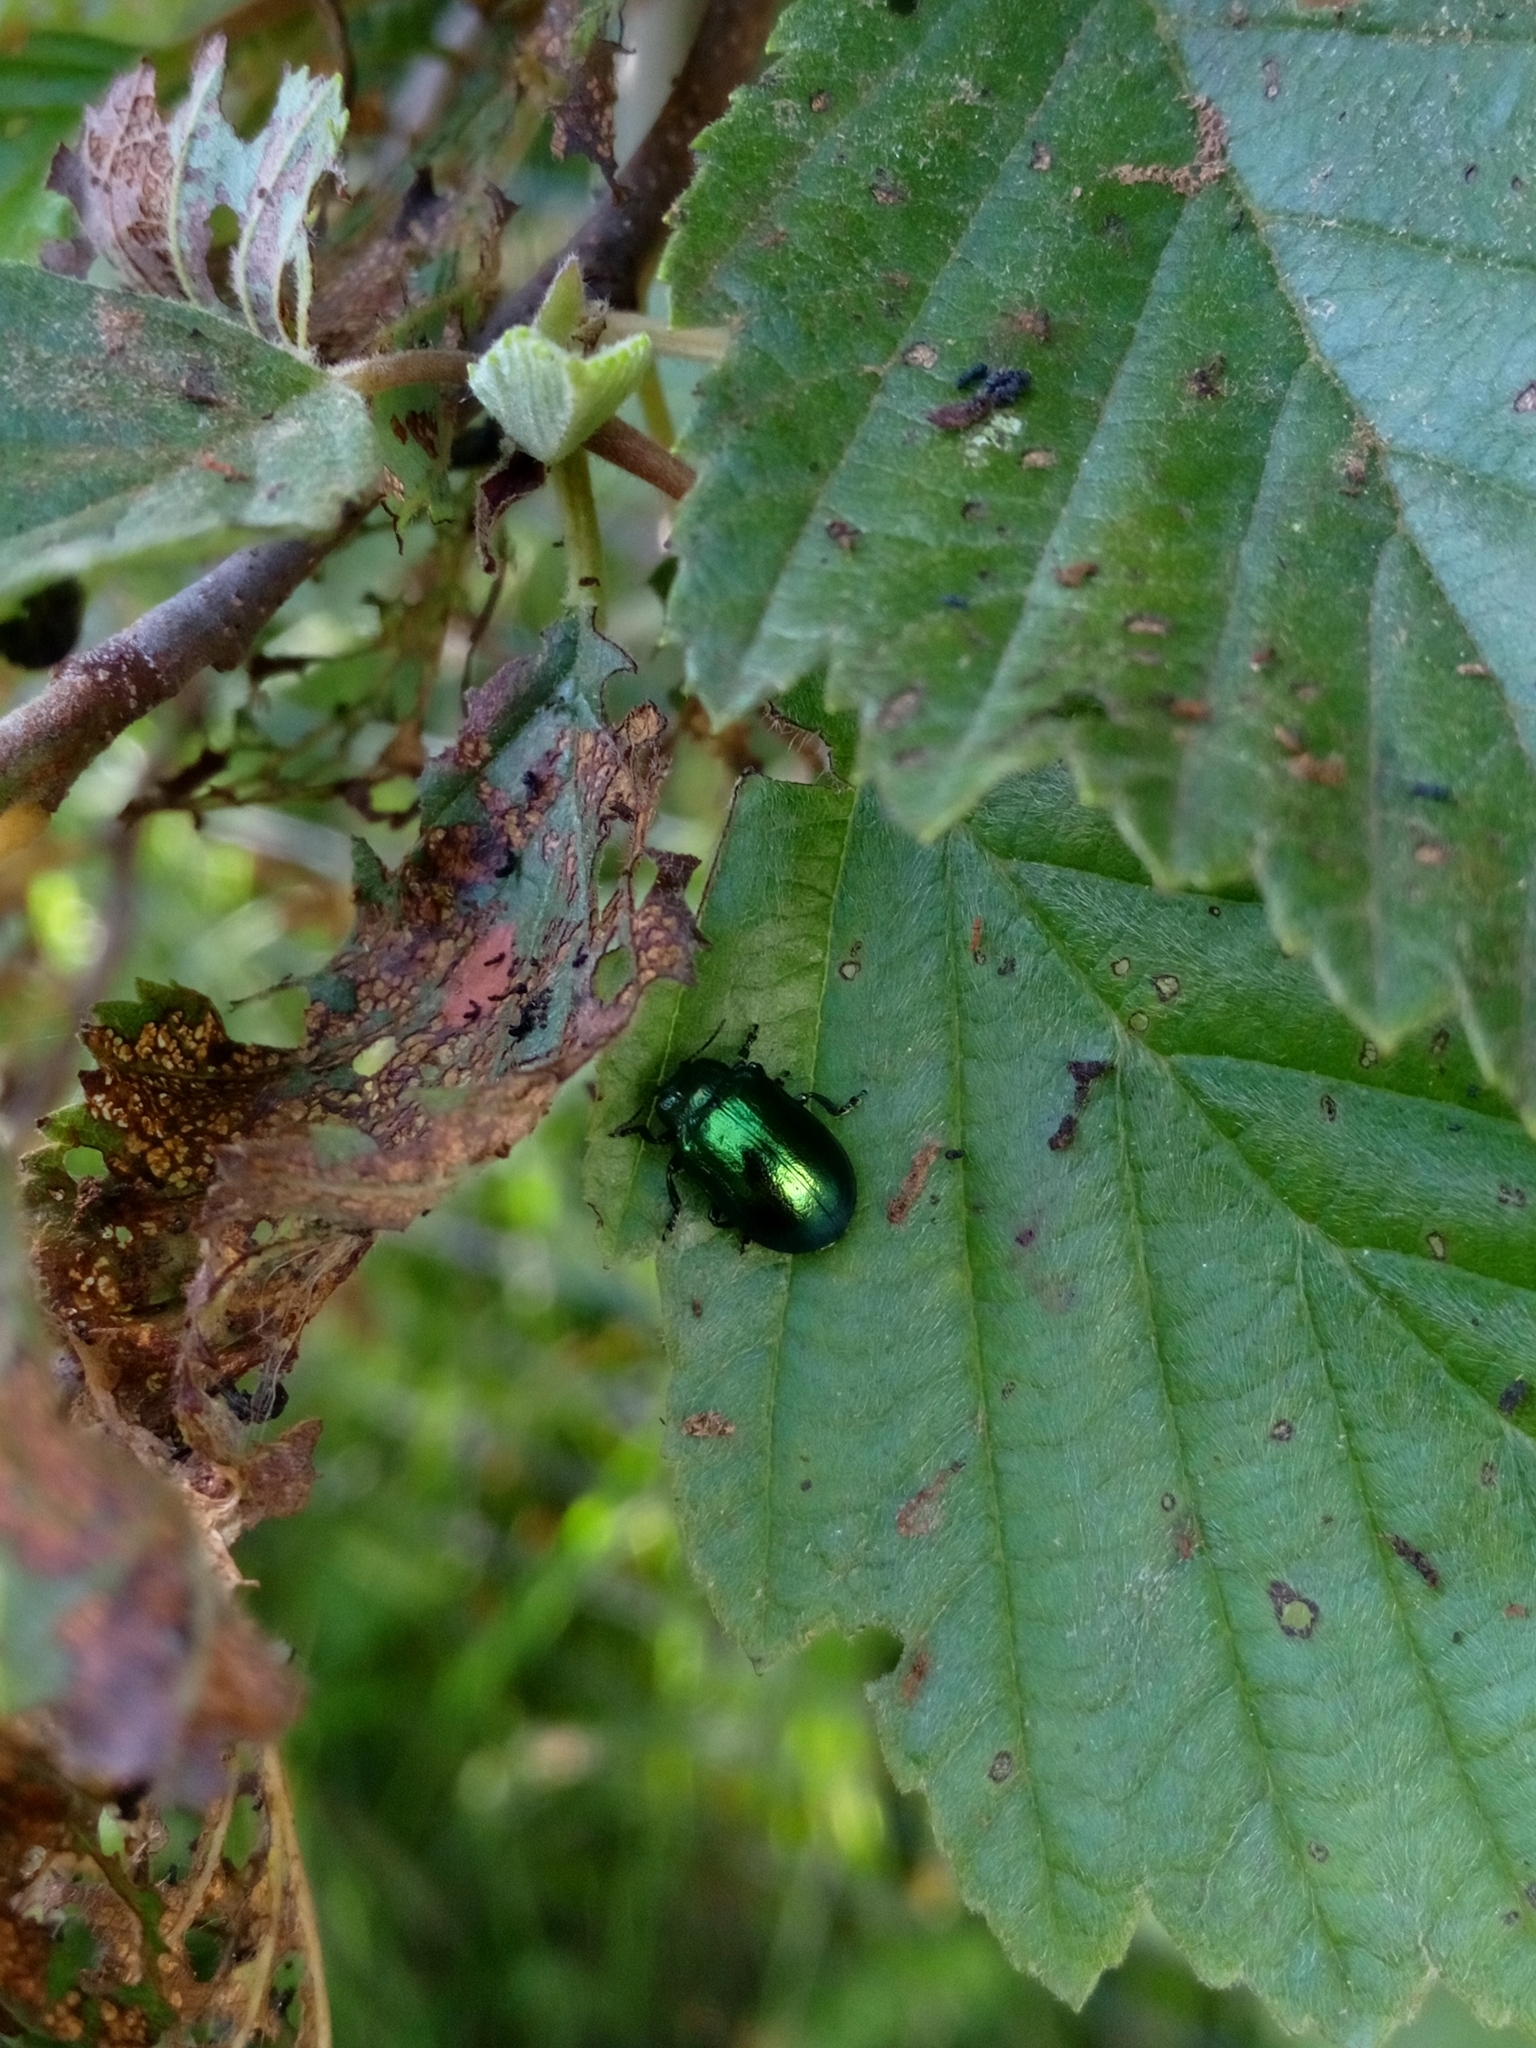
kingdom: Animalia
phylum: Arthropoda
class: Insecta
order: Coleoptera
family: Chrysomelidae
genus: Plagiosterna
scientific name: Plagiosterna aenea
